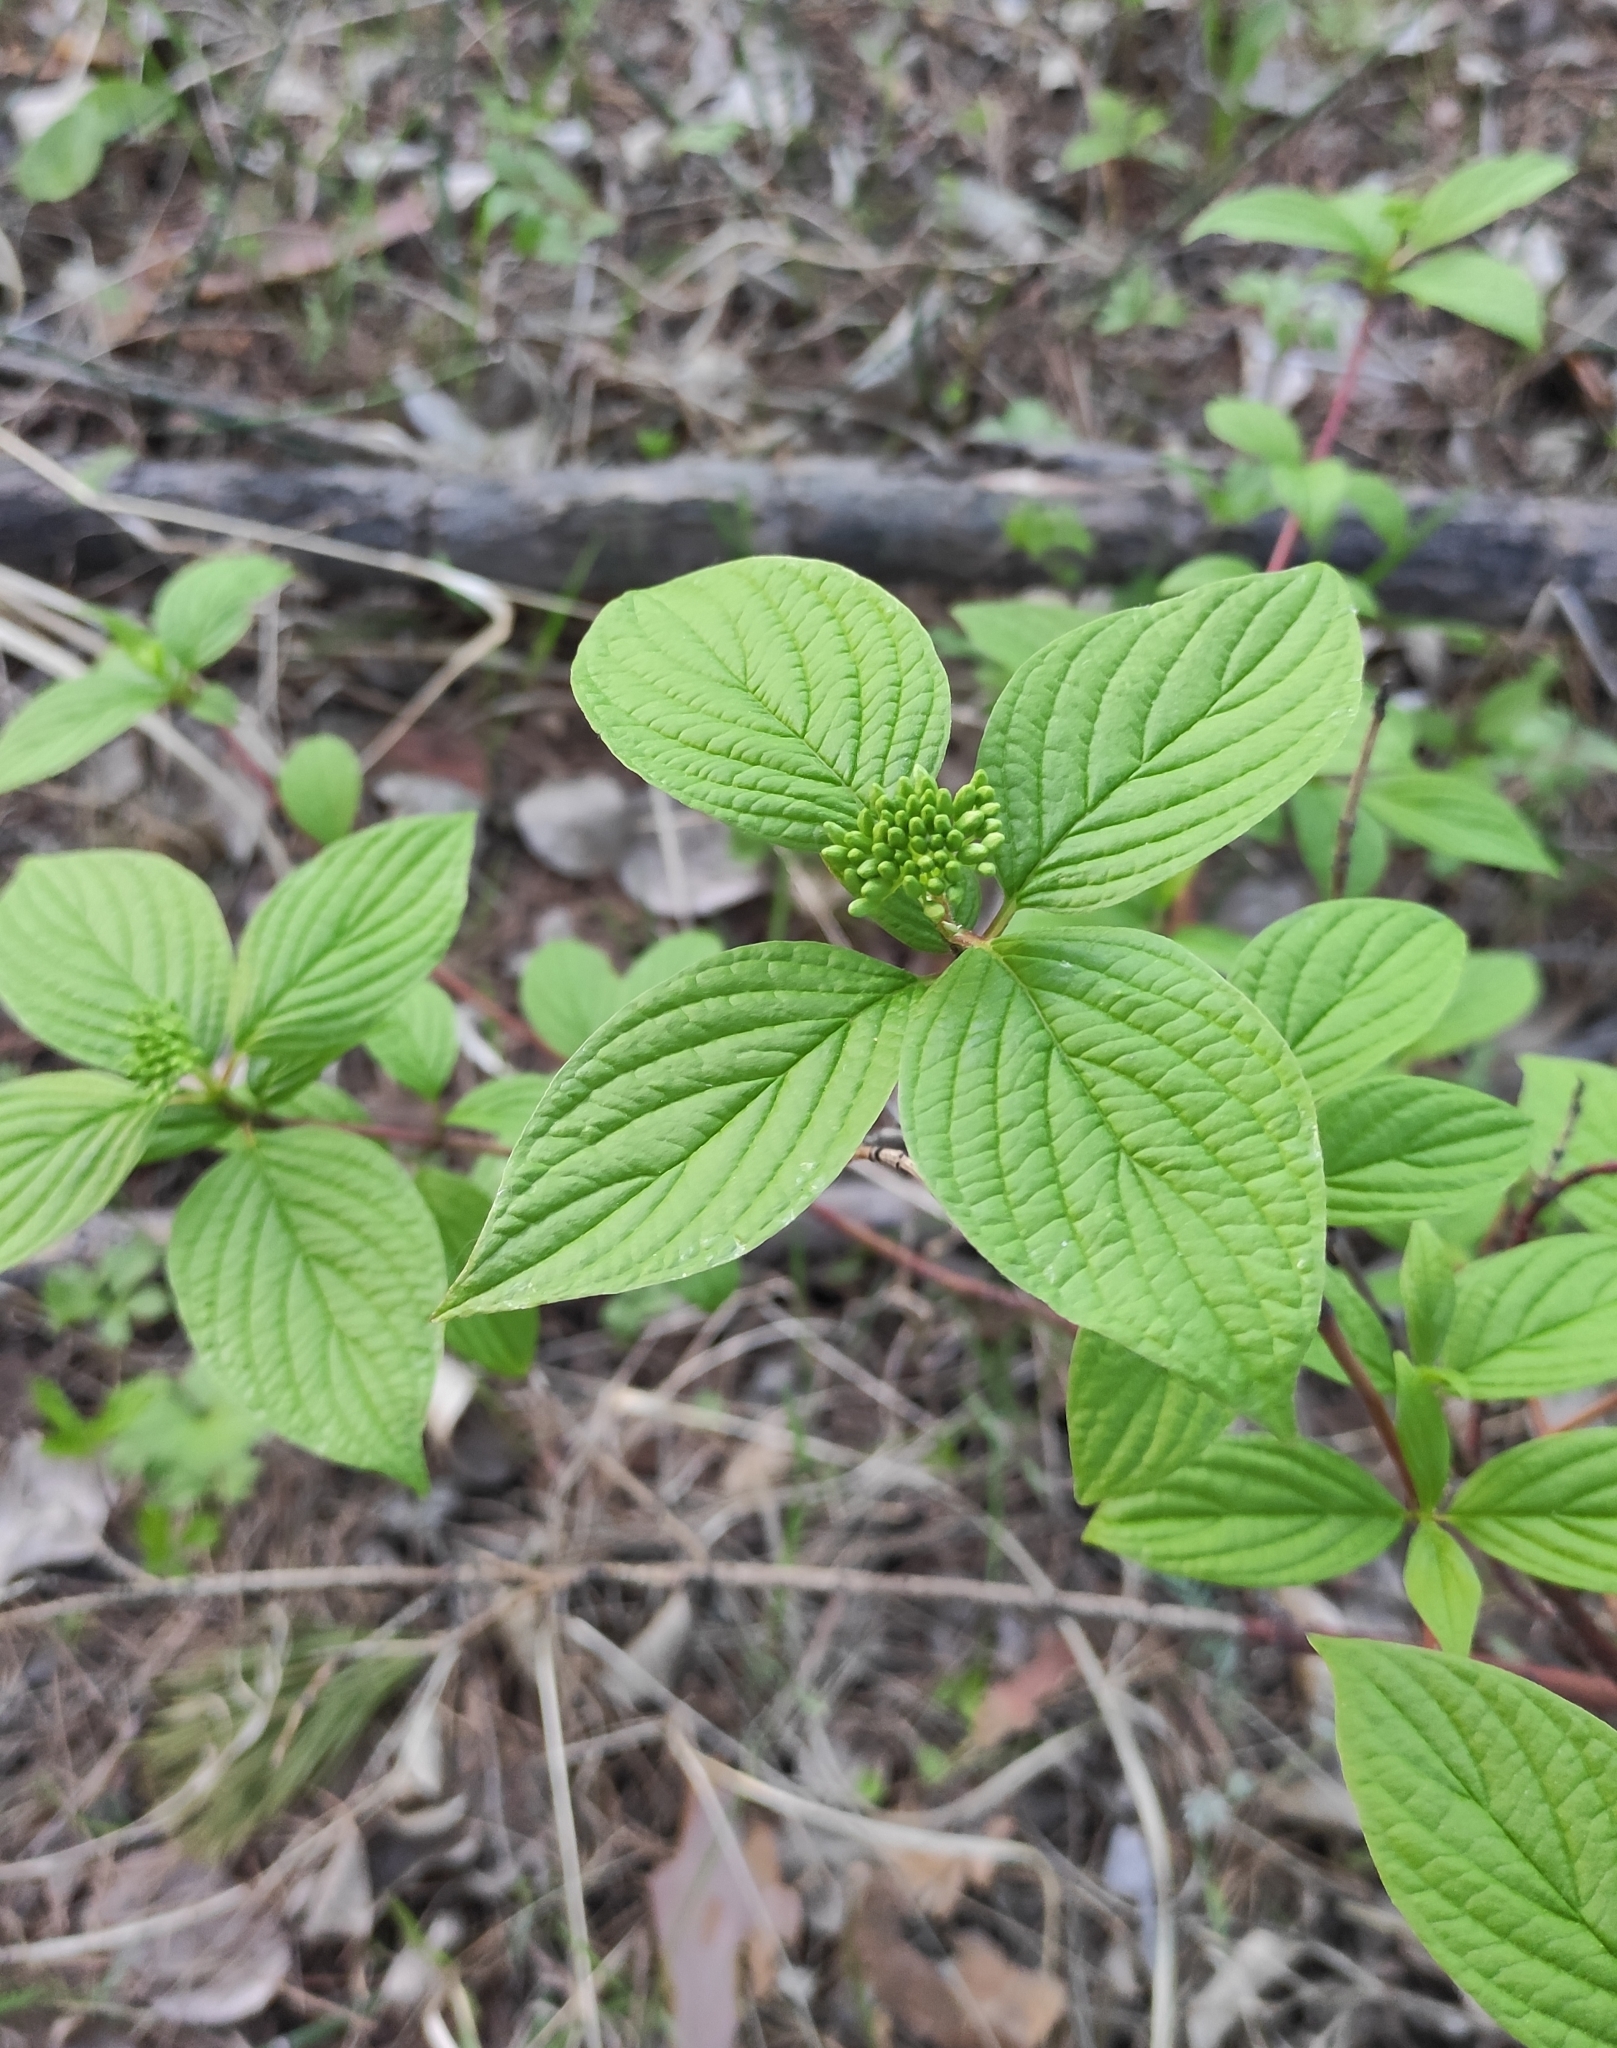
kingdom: Plantae
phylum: Tracheophyta
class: Magnoliopsida
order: Cornales
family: Cornaceae
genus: Cornus
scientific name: Cornus alba
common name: White dogwood
